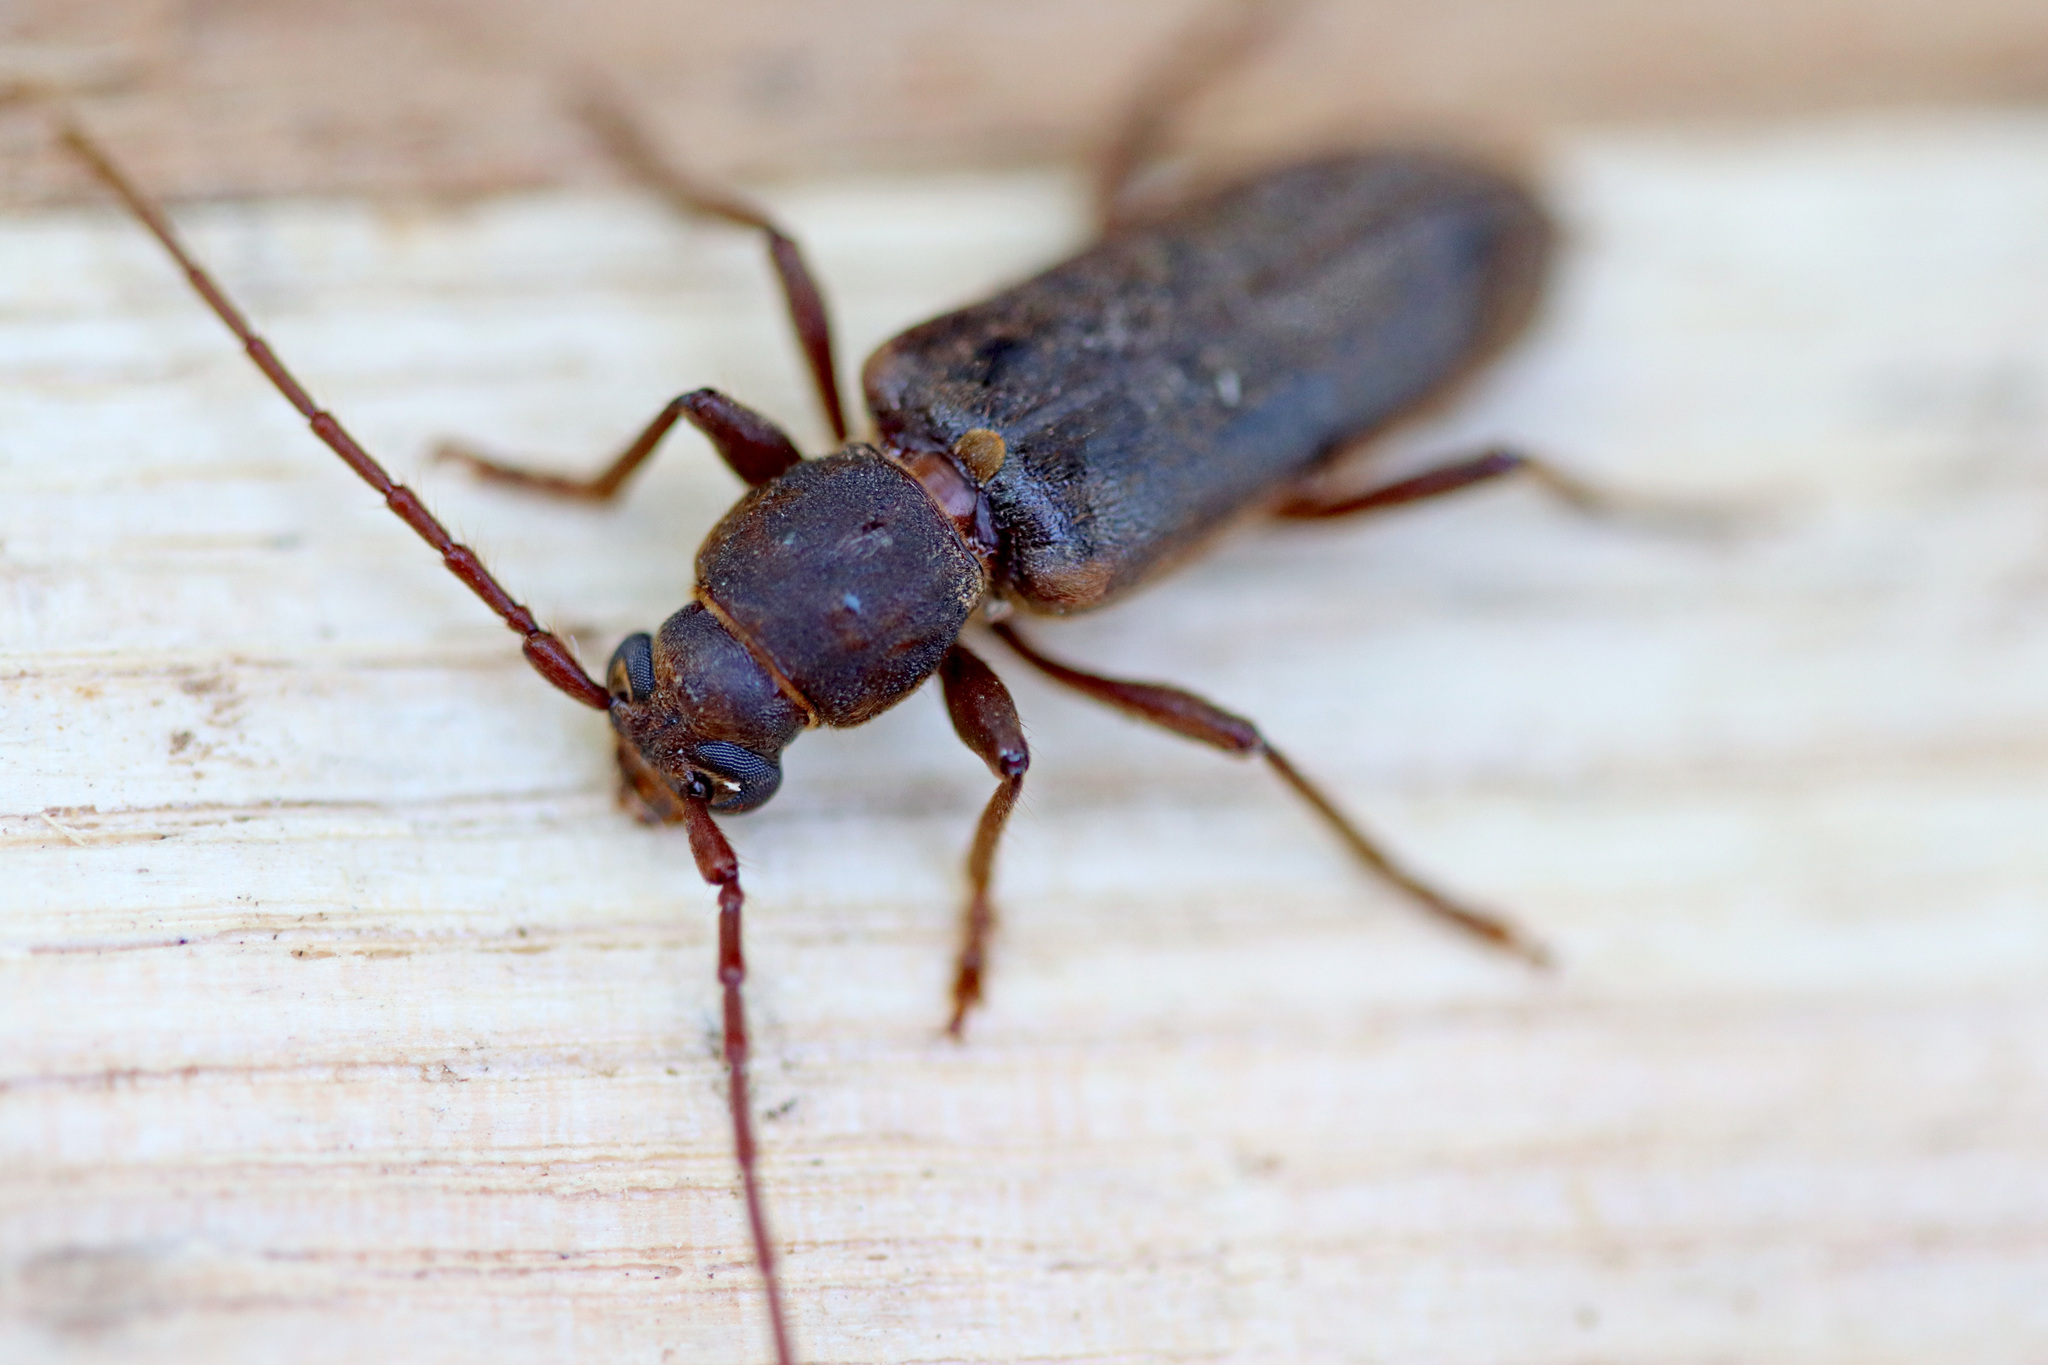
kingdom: Animalia
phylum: Arthropoda
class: Insecta
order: Coleoptera
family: Cerambycidae
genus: Trichoferus
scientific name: Trichoferus campestris
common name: Velvet long horned beetle
